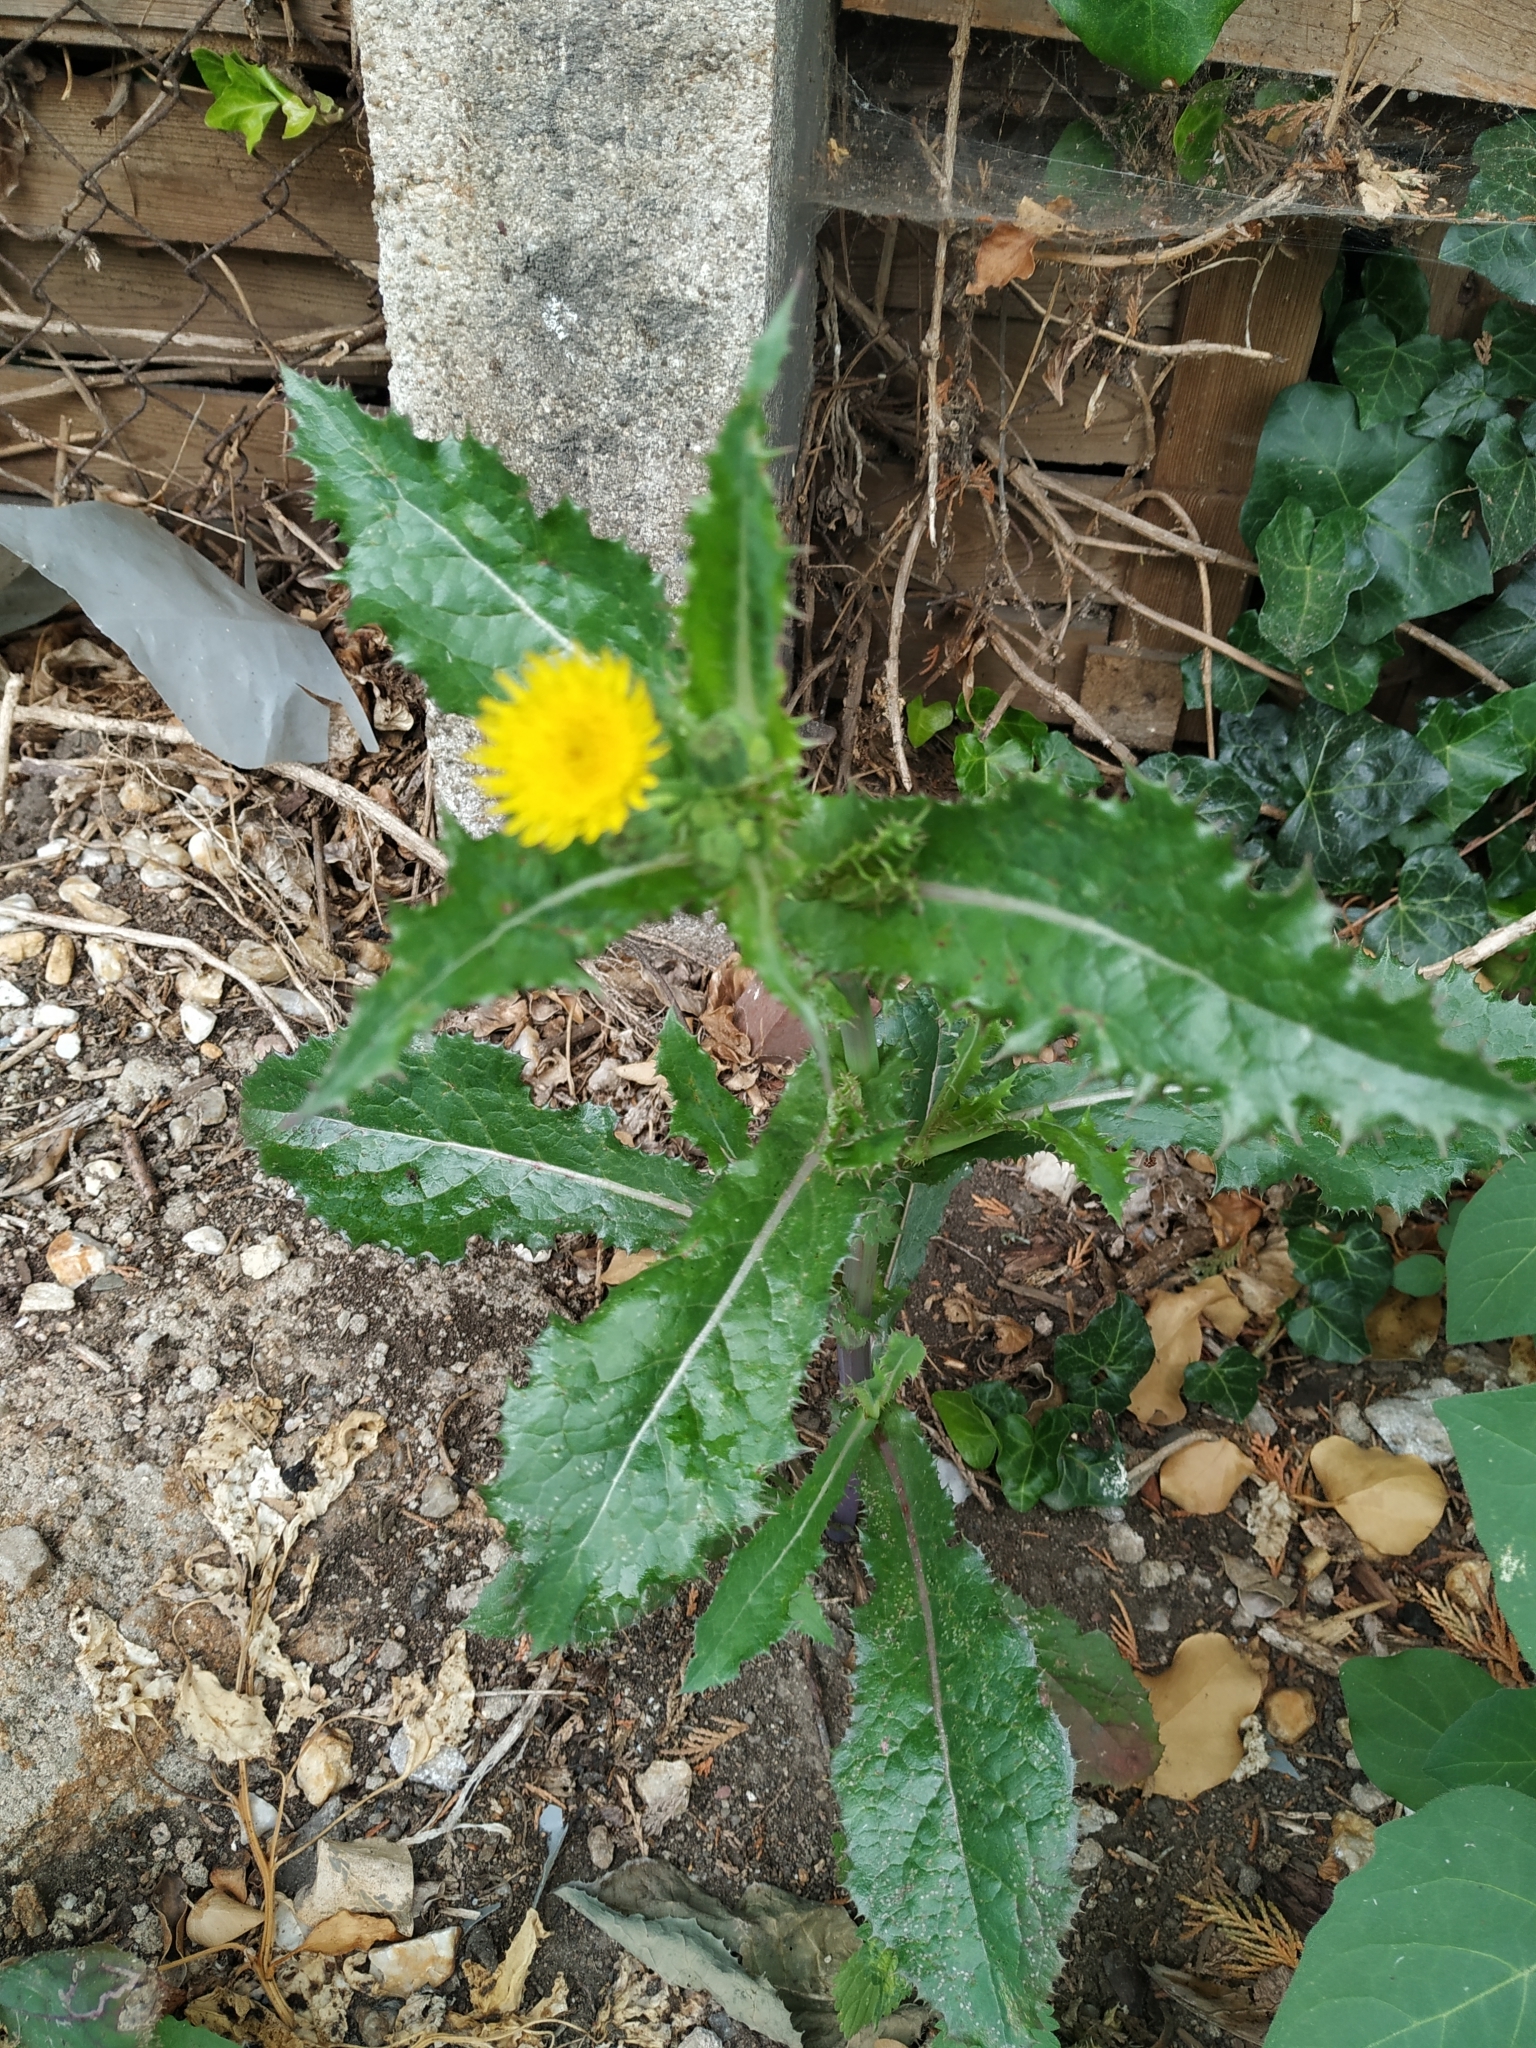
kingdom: Plantae
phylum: Tracheophyta
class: Magnoliopsida
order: Asterales
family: Asteraceae
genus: Sonchus
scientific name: Sonchus asper
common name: Prickly sow-thistle
